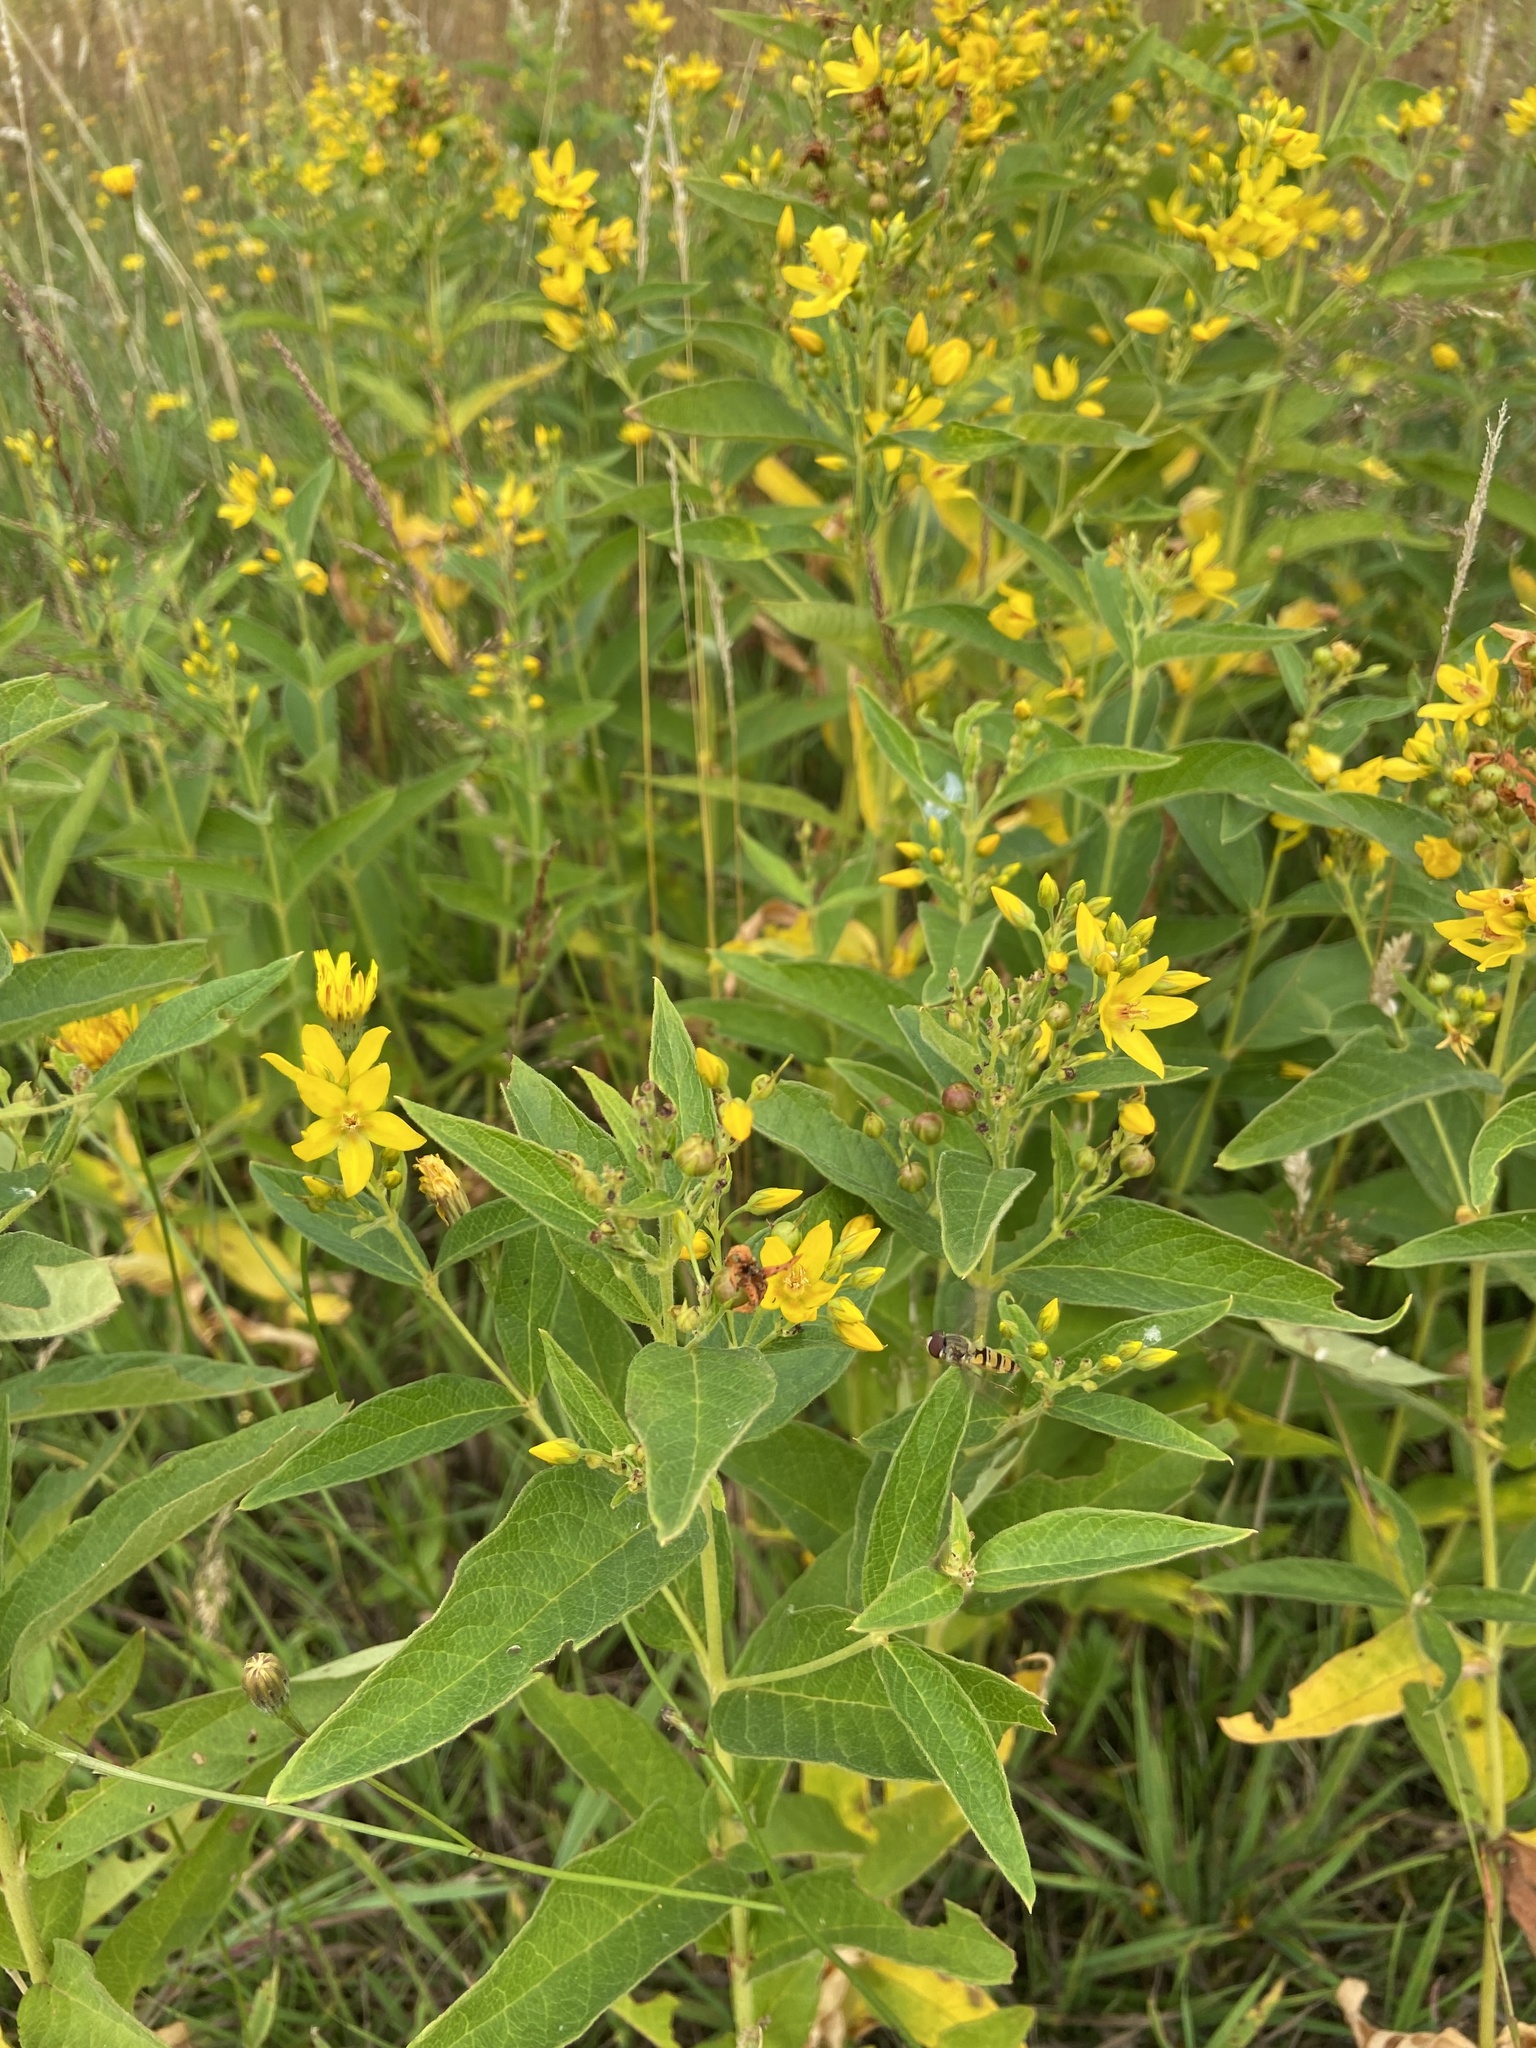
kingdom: Plantae
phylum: Tracheophyta
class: Magnoliopsida
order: Ericales
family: Primulaceae
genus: Lysimachia
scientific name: Lysimachia vulgaris
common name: Yellow loosestrife
